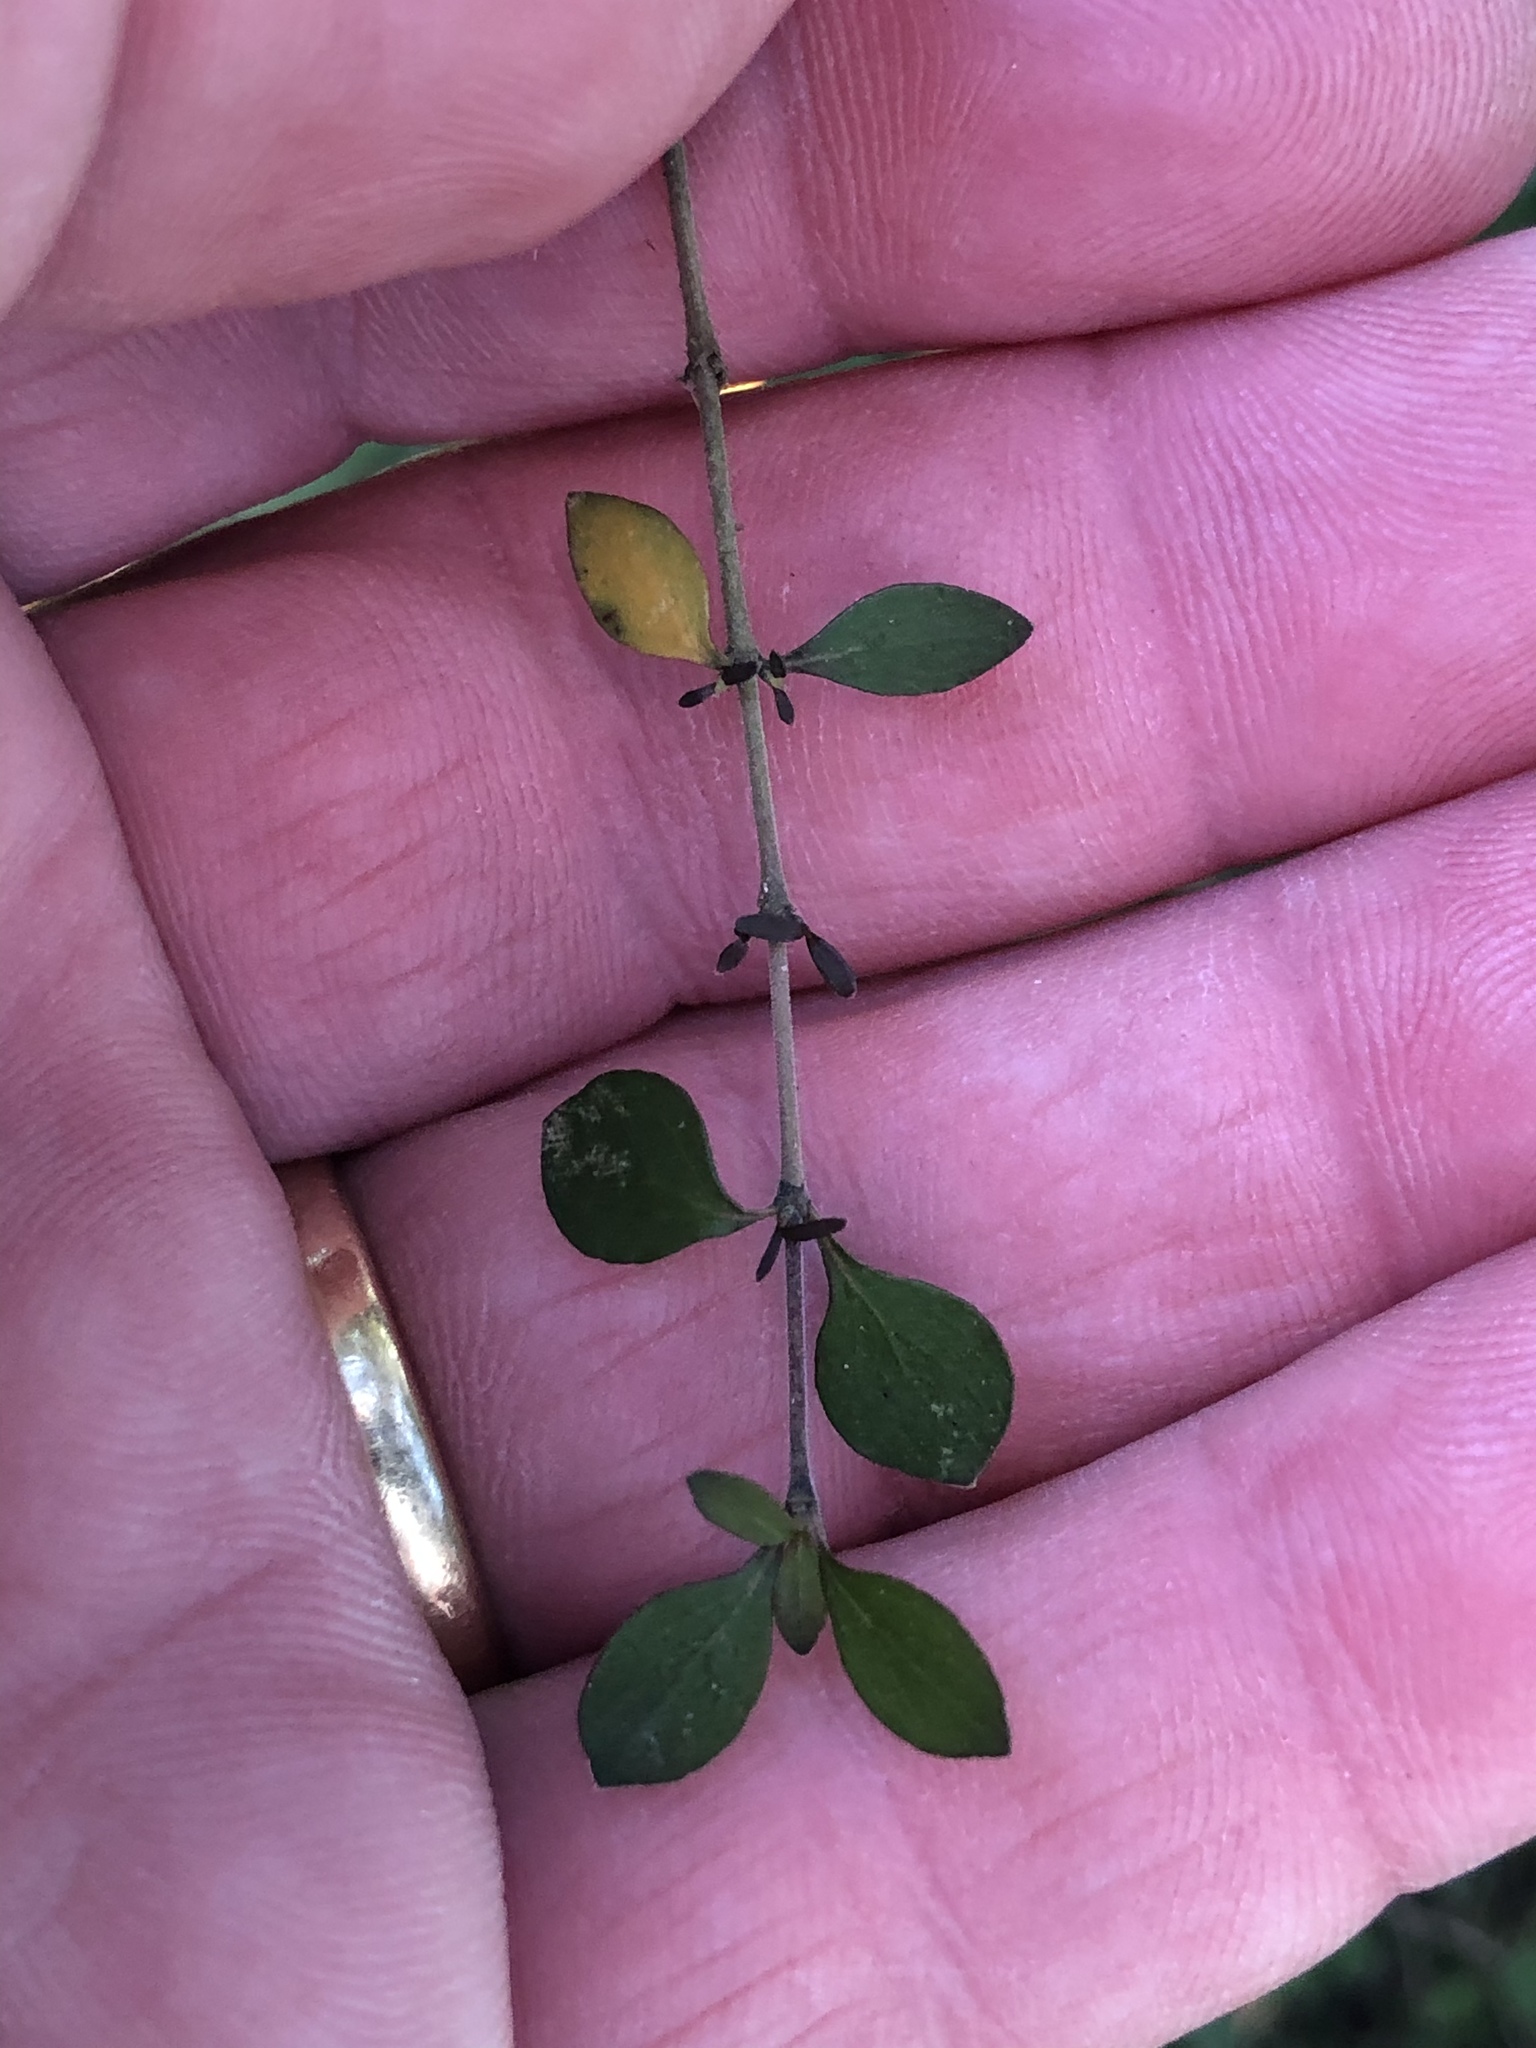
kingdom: Plantae
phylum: Tracheophyta
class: Magnoliopsida
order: Gentianales
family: Rubiaceae
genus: Coprosma
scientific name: Coprosma rhamnoides
